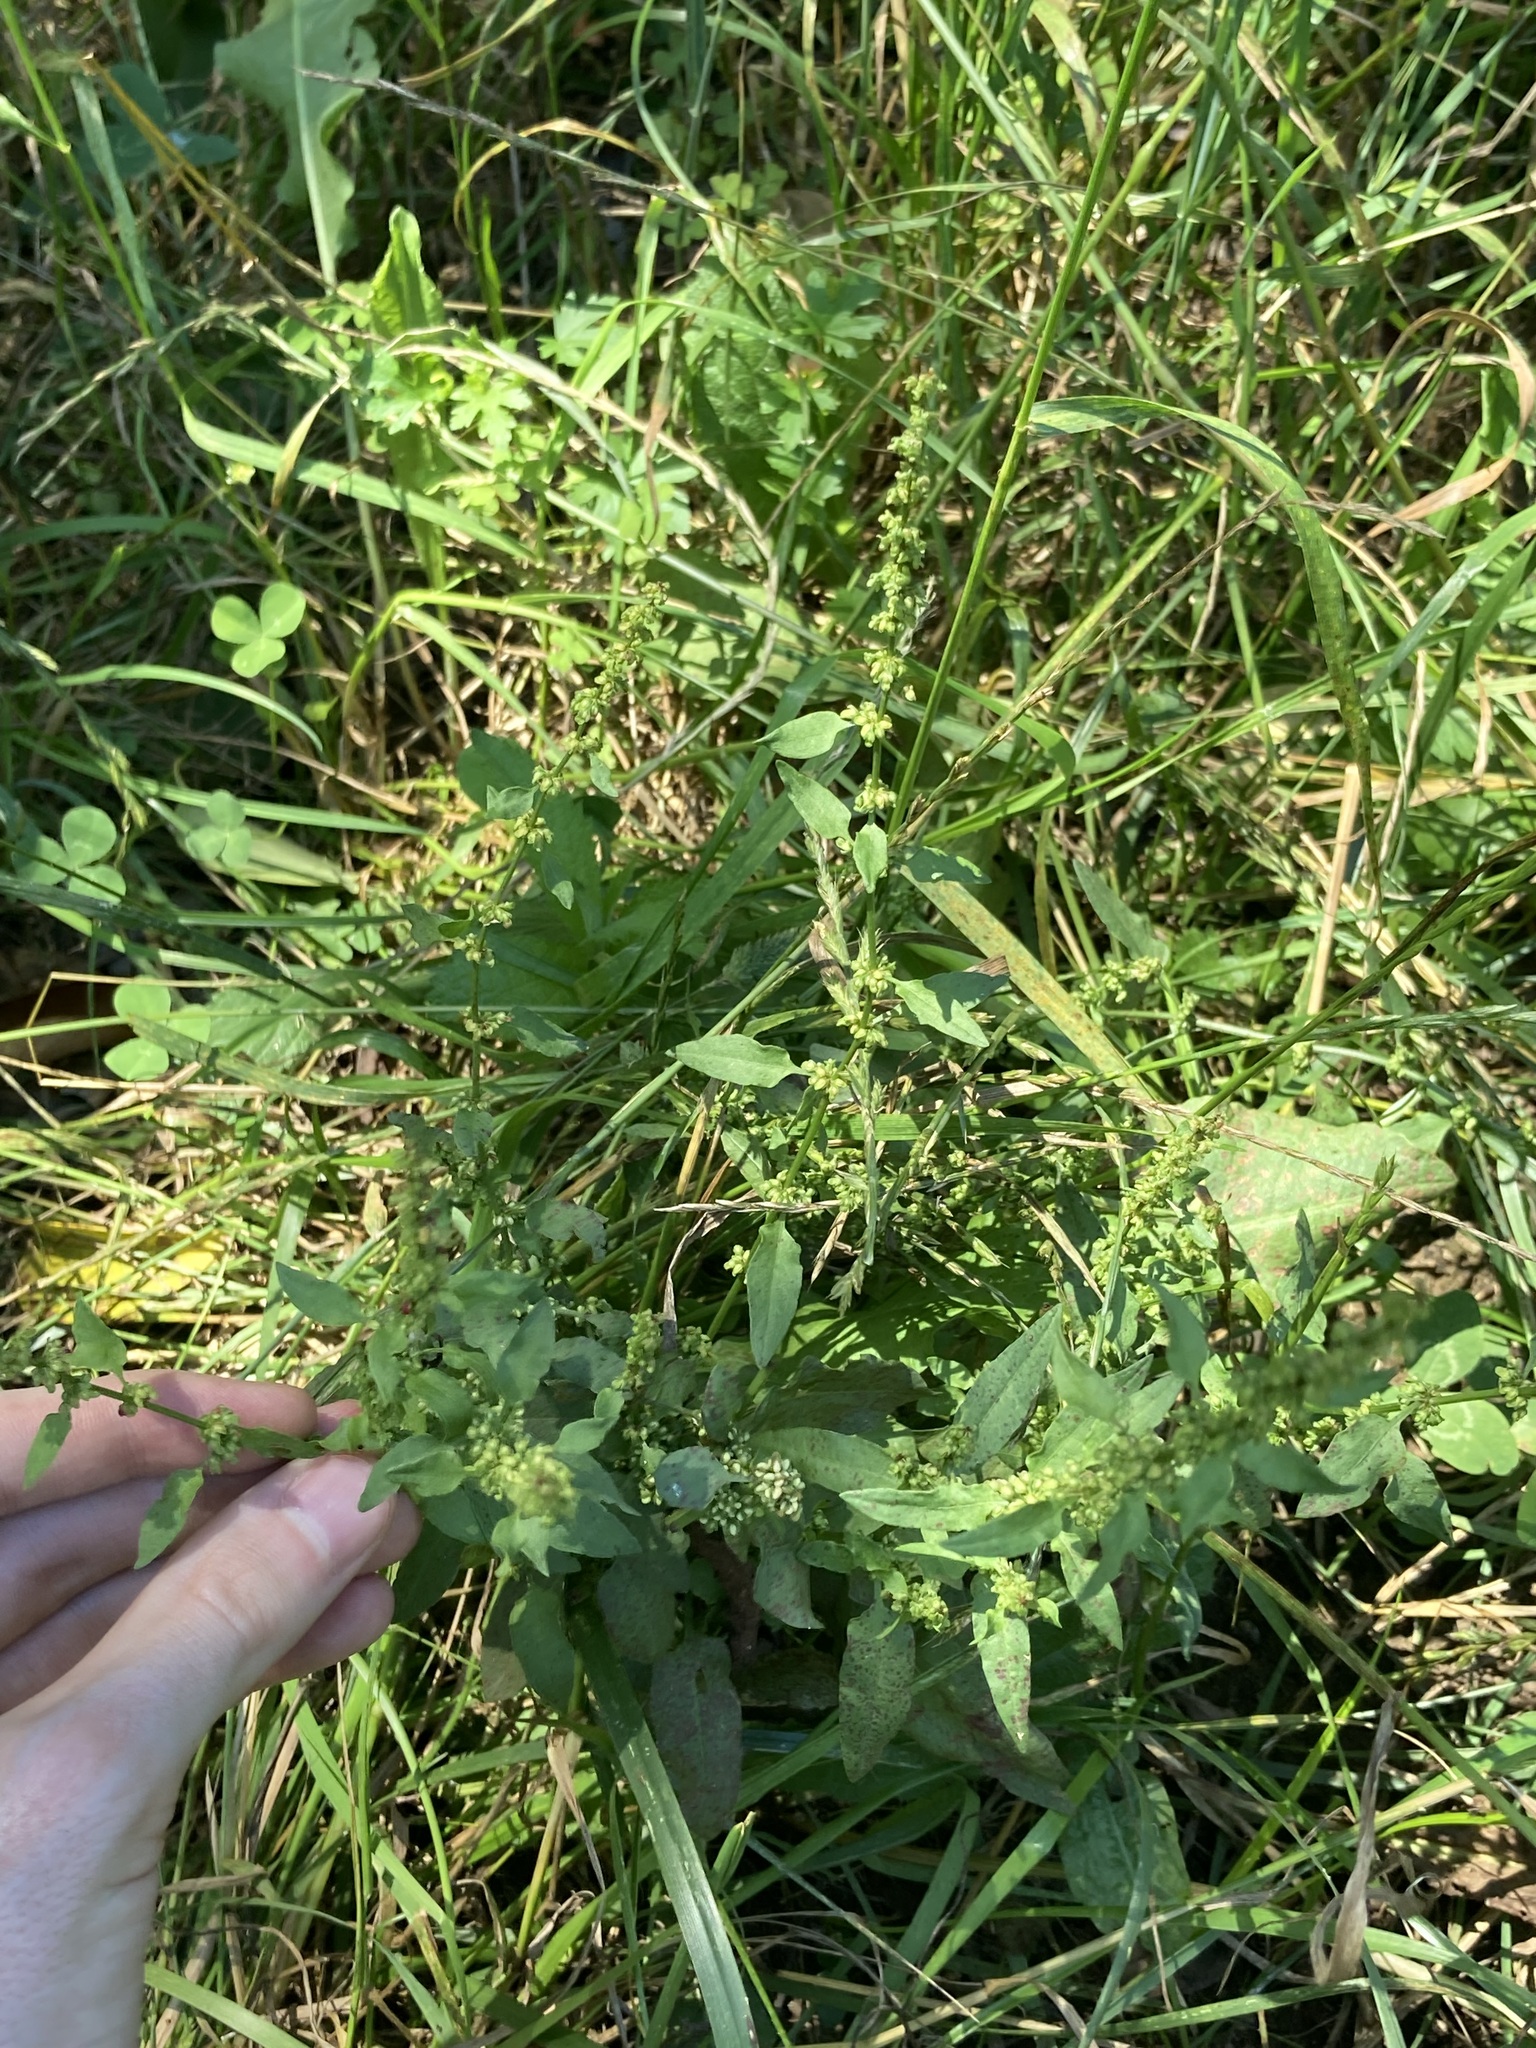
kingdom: Plantae
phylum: Tracheophyta
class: Magnoliopsida
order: Caryophyllales
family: Polygonaceae
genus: Rumex
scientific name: Rumex conglomeratus
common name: Clustered dock
